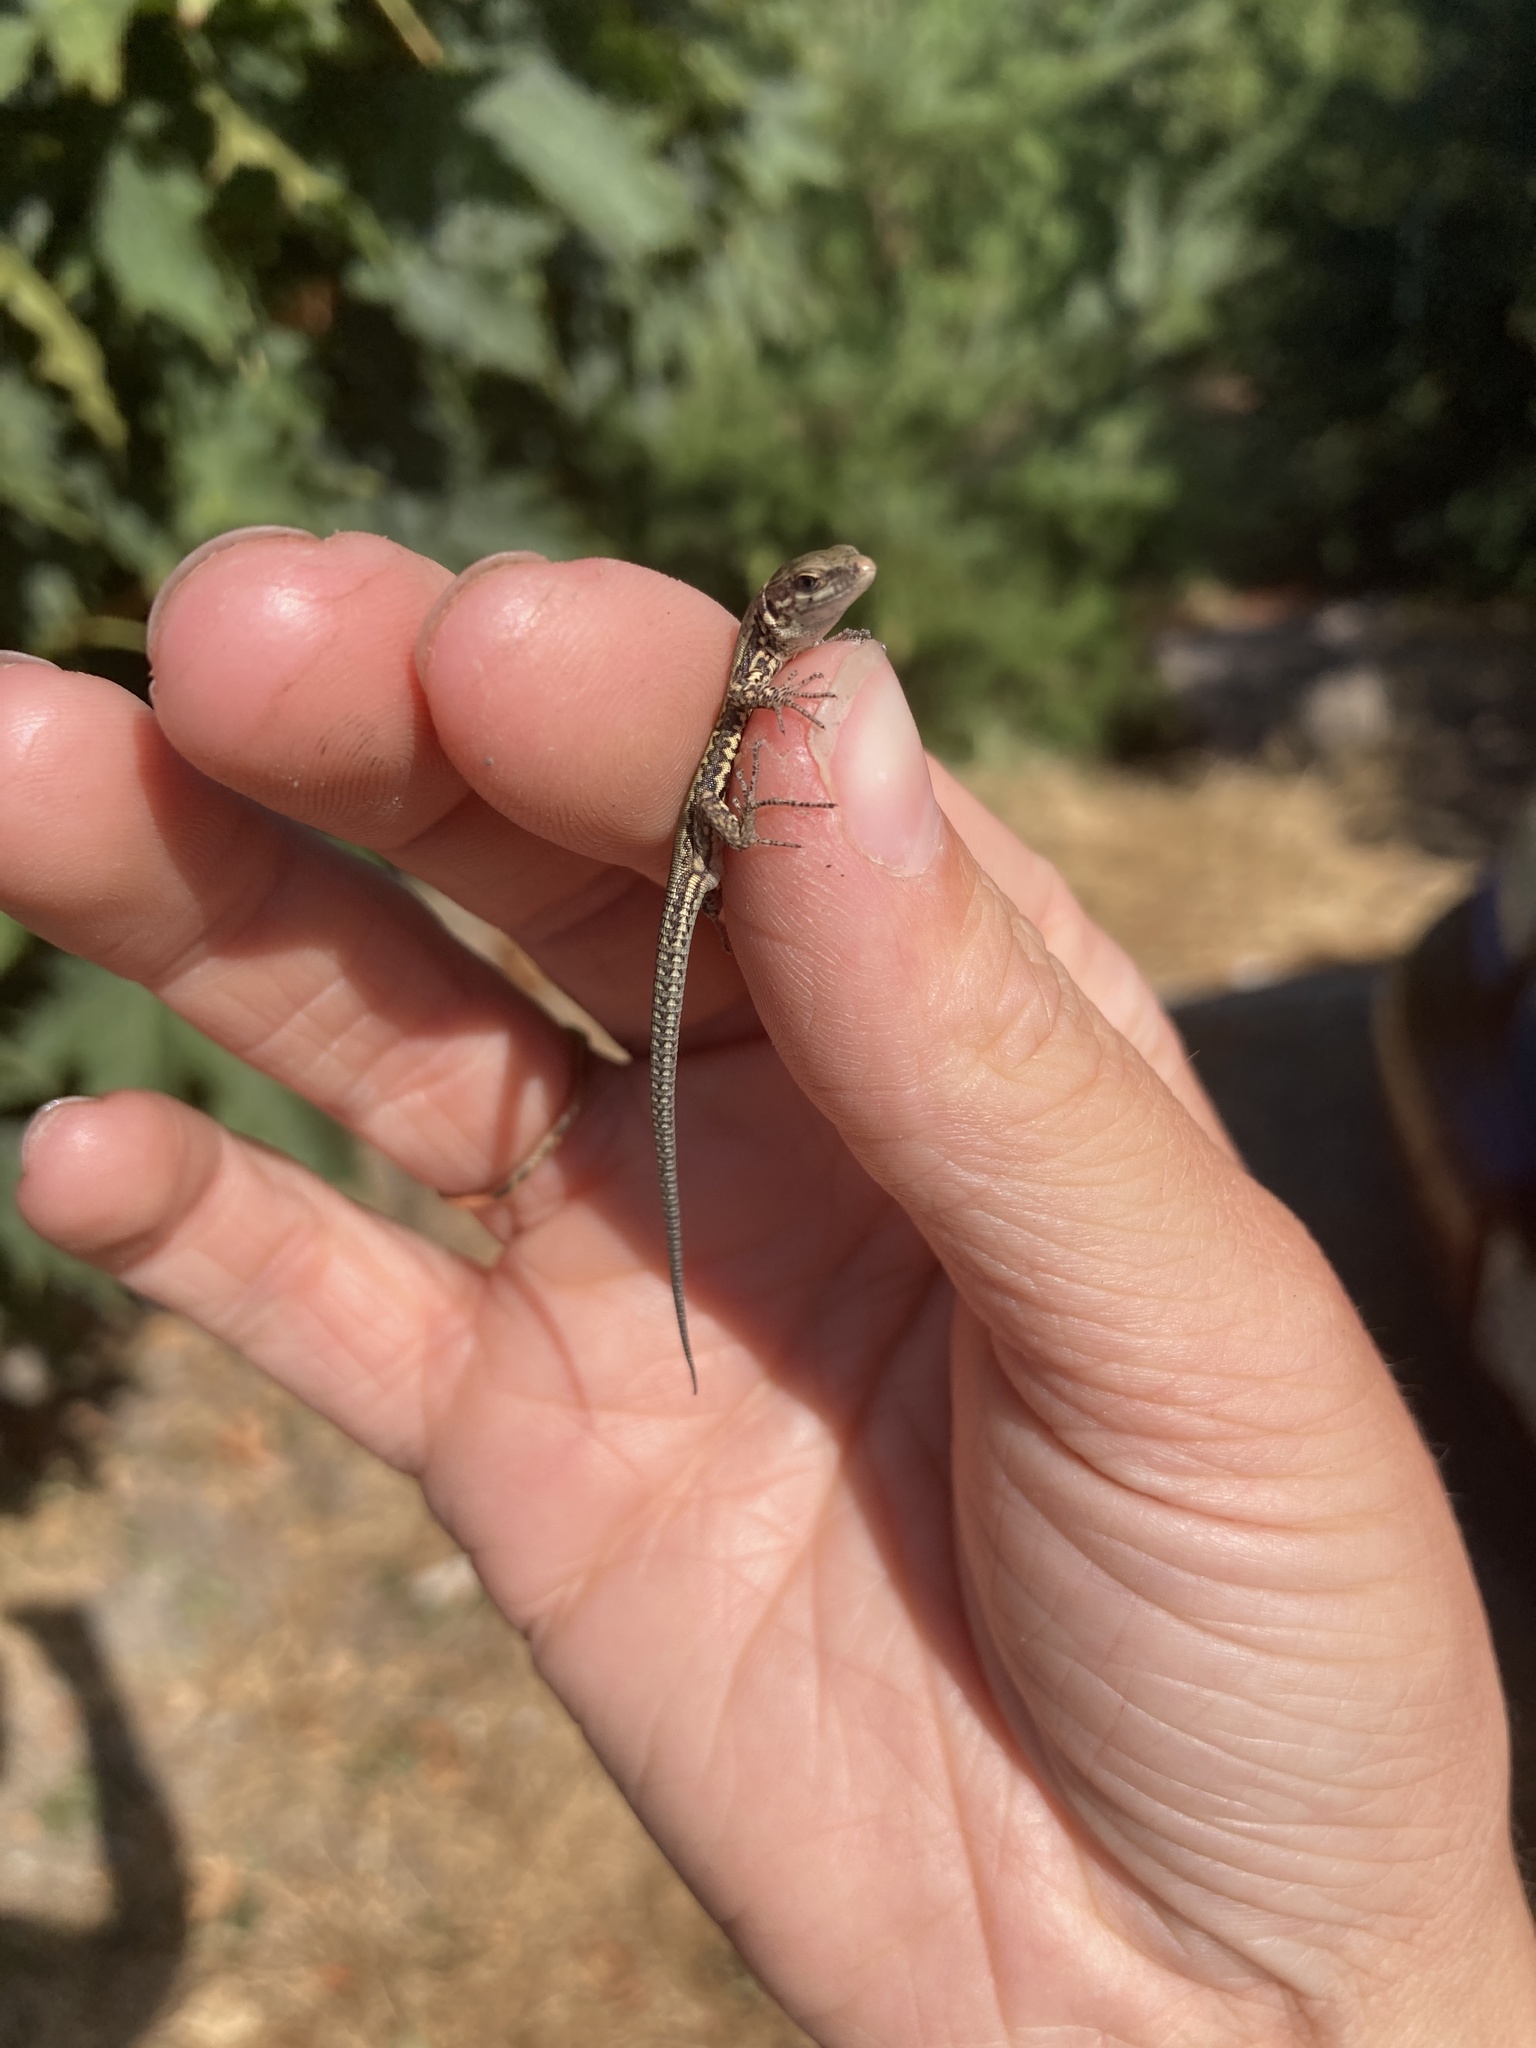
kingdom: Animalia
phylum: Chordata
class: Squamata
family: Lacertidae
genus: Podarcis
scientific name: Podarcis muralis
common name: Common wall lizard
